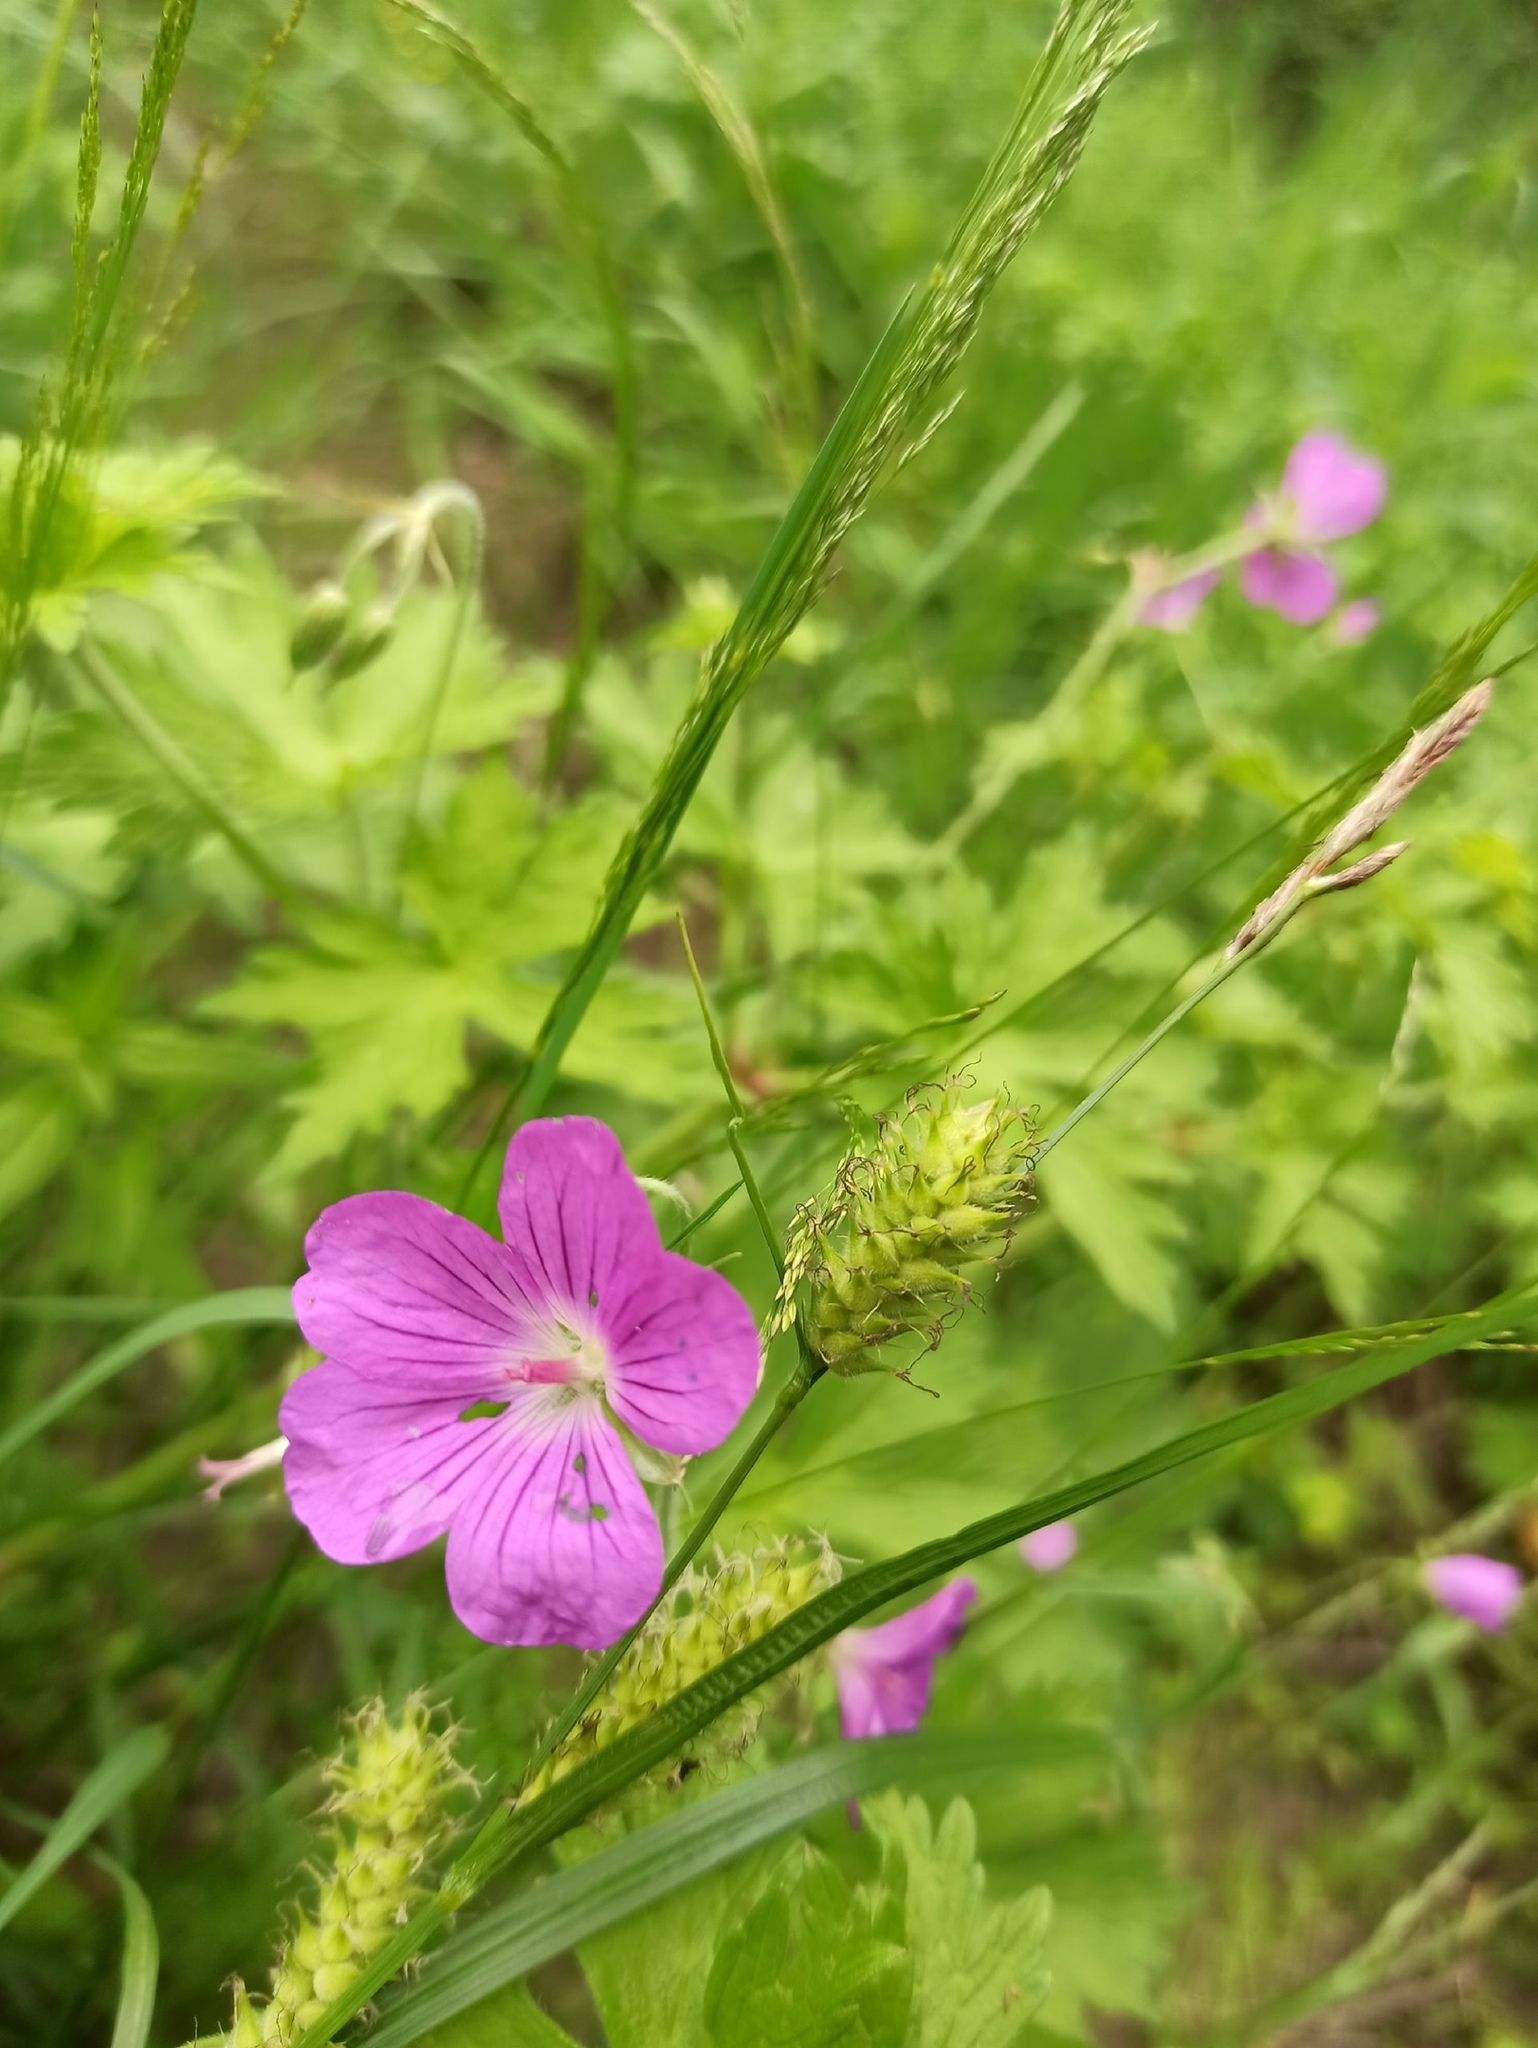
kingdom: Plantae
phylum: Tracheophyta
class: Magnoliopsida
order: Geraniales
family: Geraniaceae
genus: Geranium
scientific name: Geranium palustre
